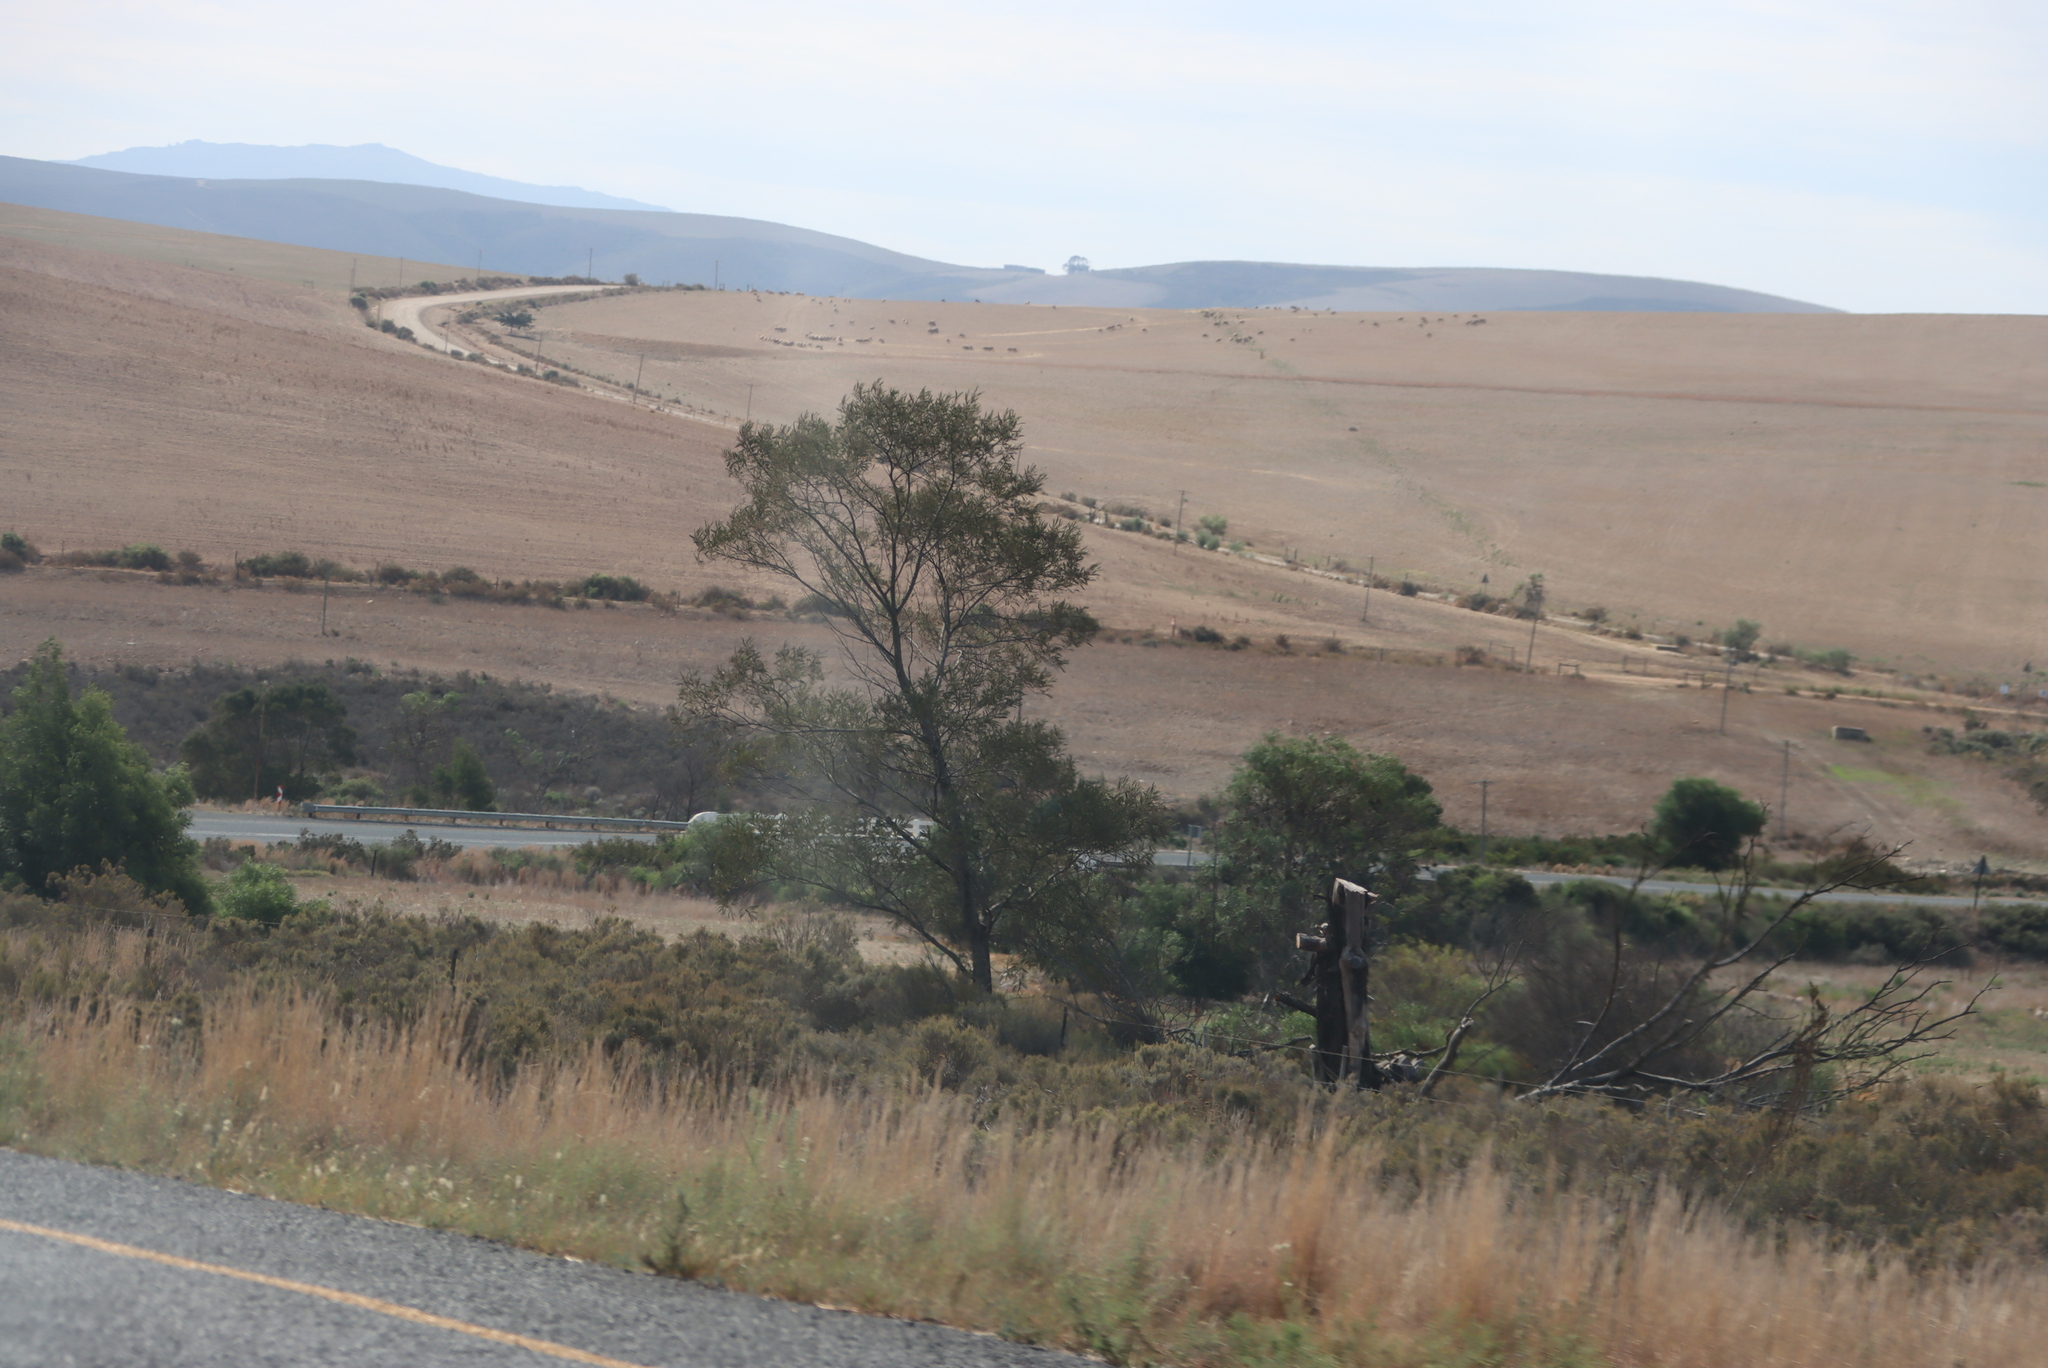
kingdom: Plantae
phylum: Tracheophyta
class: Magnoliopsida
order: Fabales
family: Fabaceae
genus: Acacia
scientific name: Acacia mearnsii
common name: Black wattle
